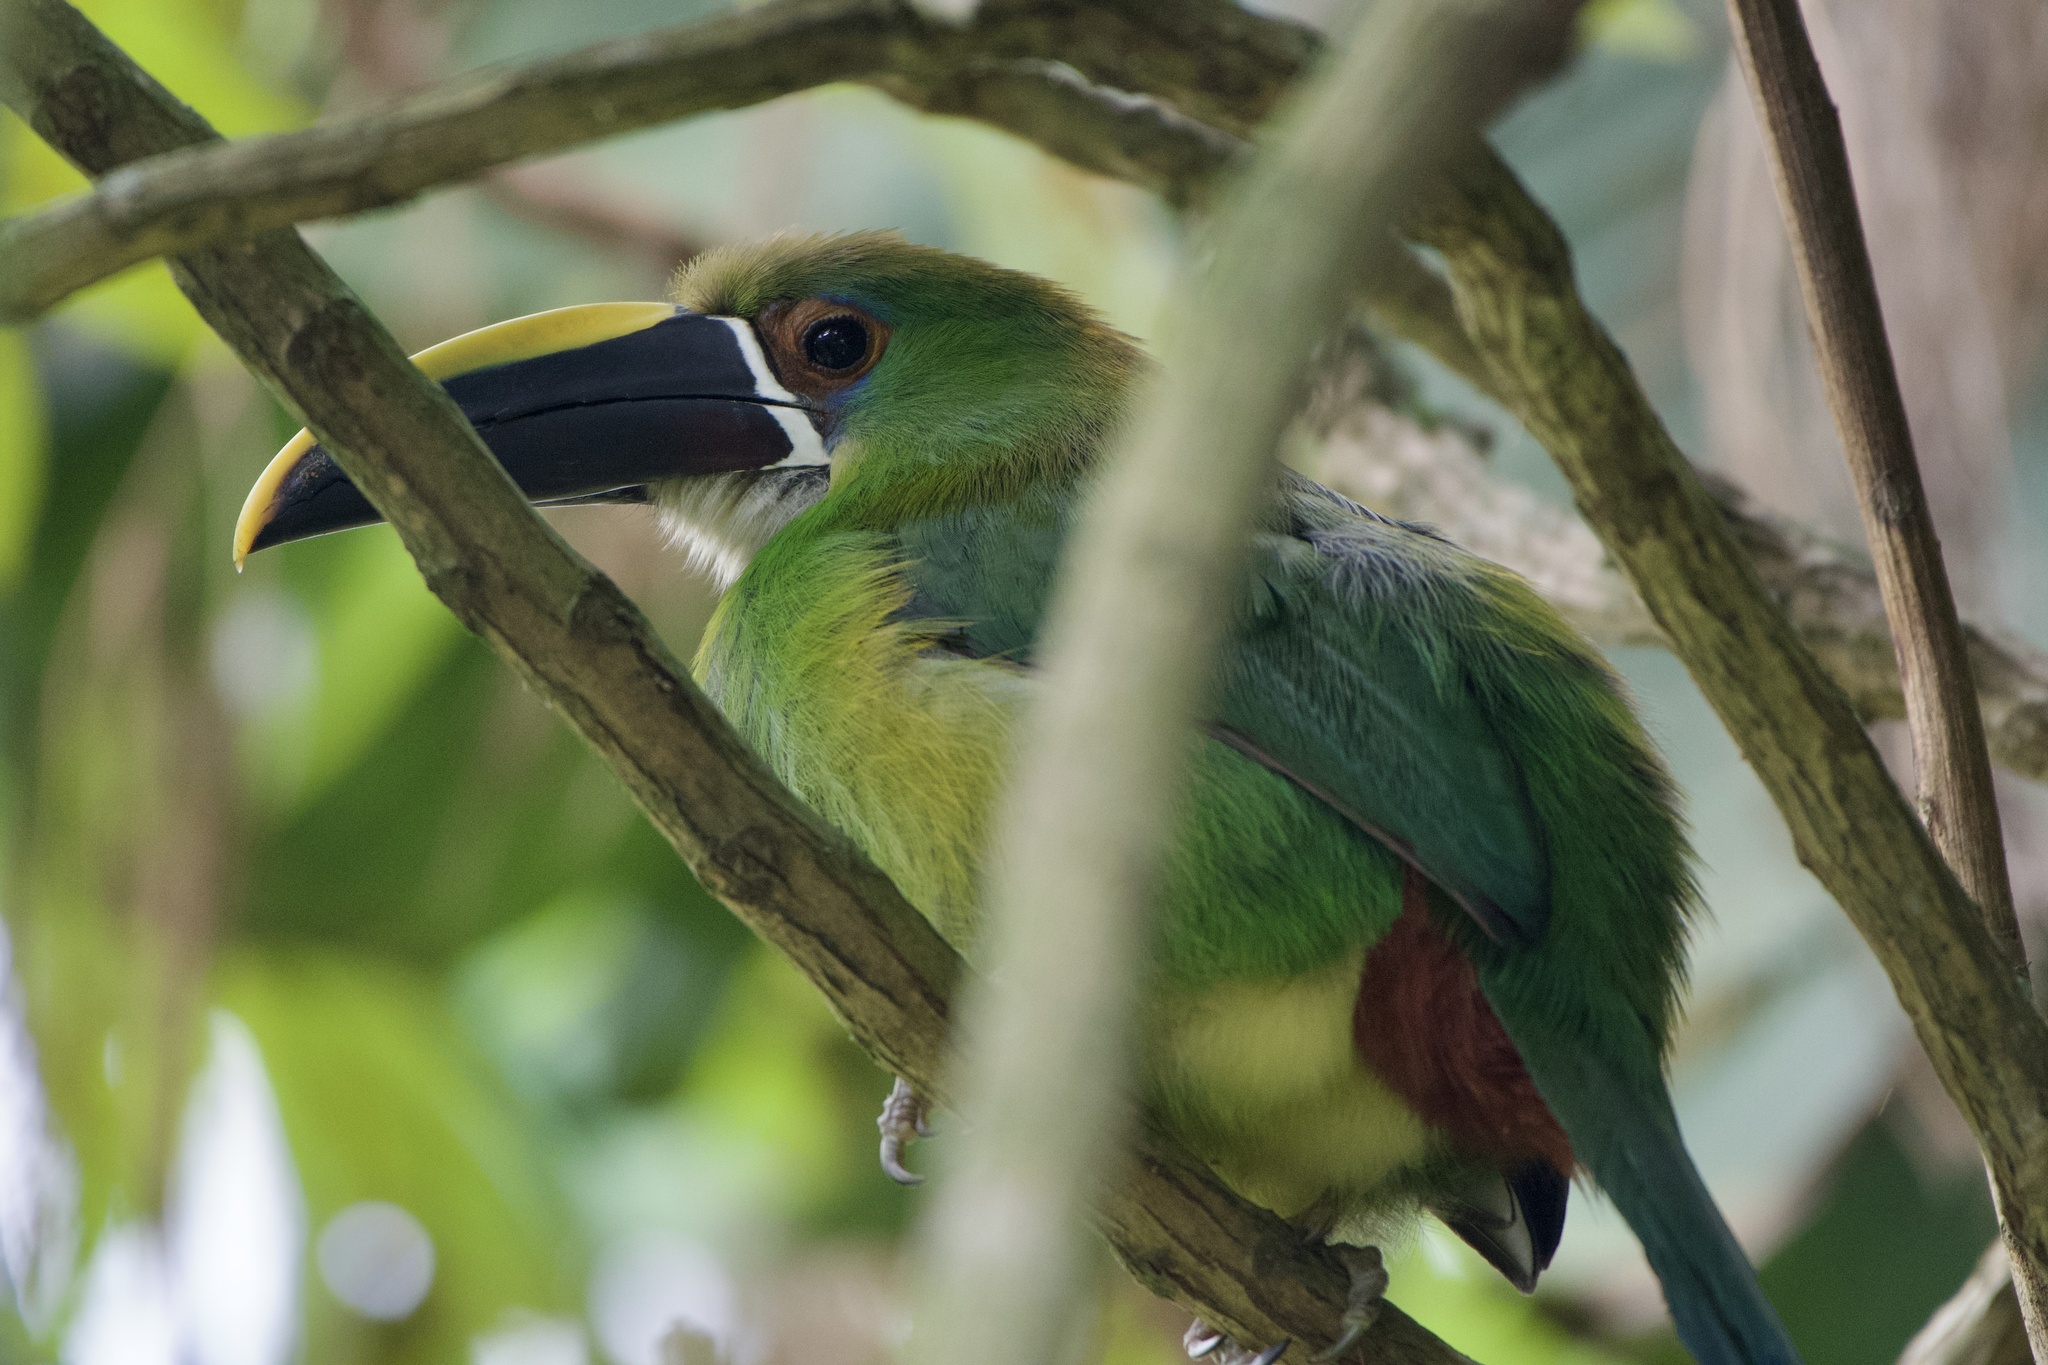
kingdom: Animalia
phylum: Chordata
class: Aves
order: Piciformes
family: Ramphastidae
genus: Aulacorhynchus
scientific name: Aulacorhynchus albivitta
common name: White-throated toucanet
